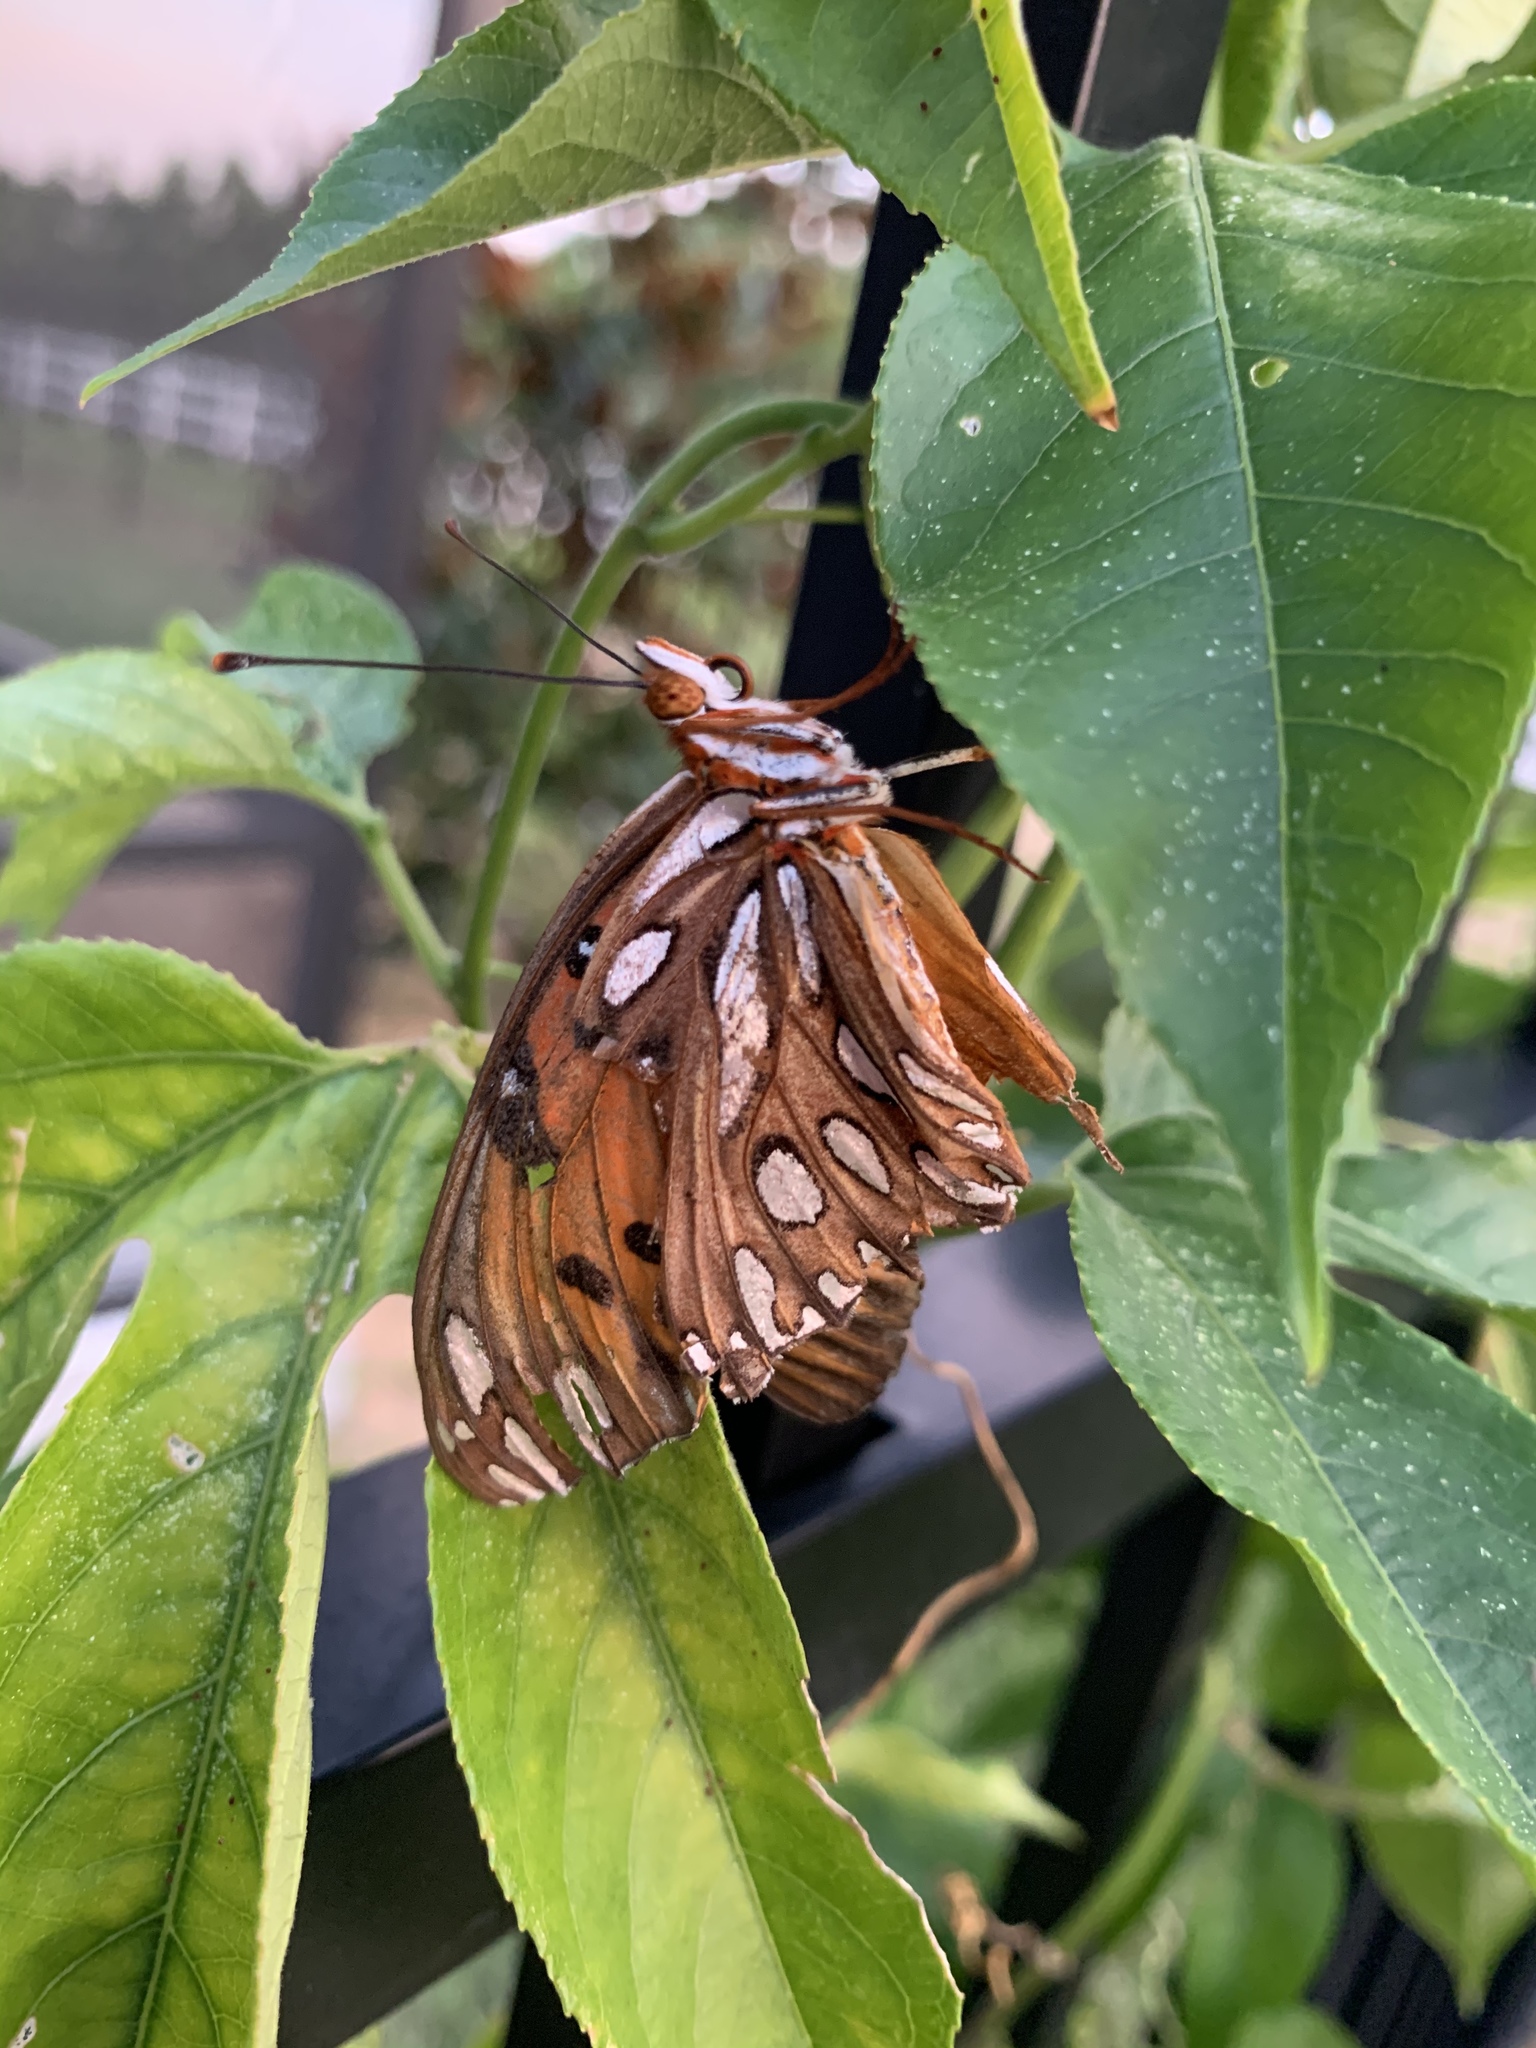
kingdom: Animalia
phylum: Arthropoda
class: Insecta
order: Lepidoptera
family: Nymphalidae
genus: Dione
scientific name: Dione vanillae
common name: Gulf fritillary
